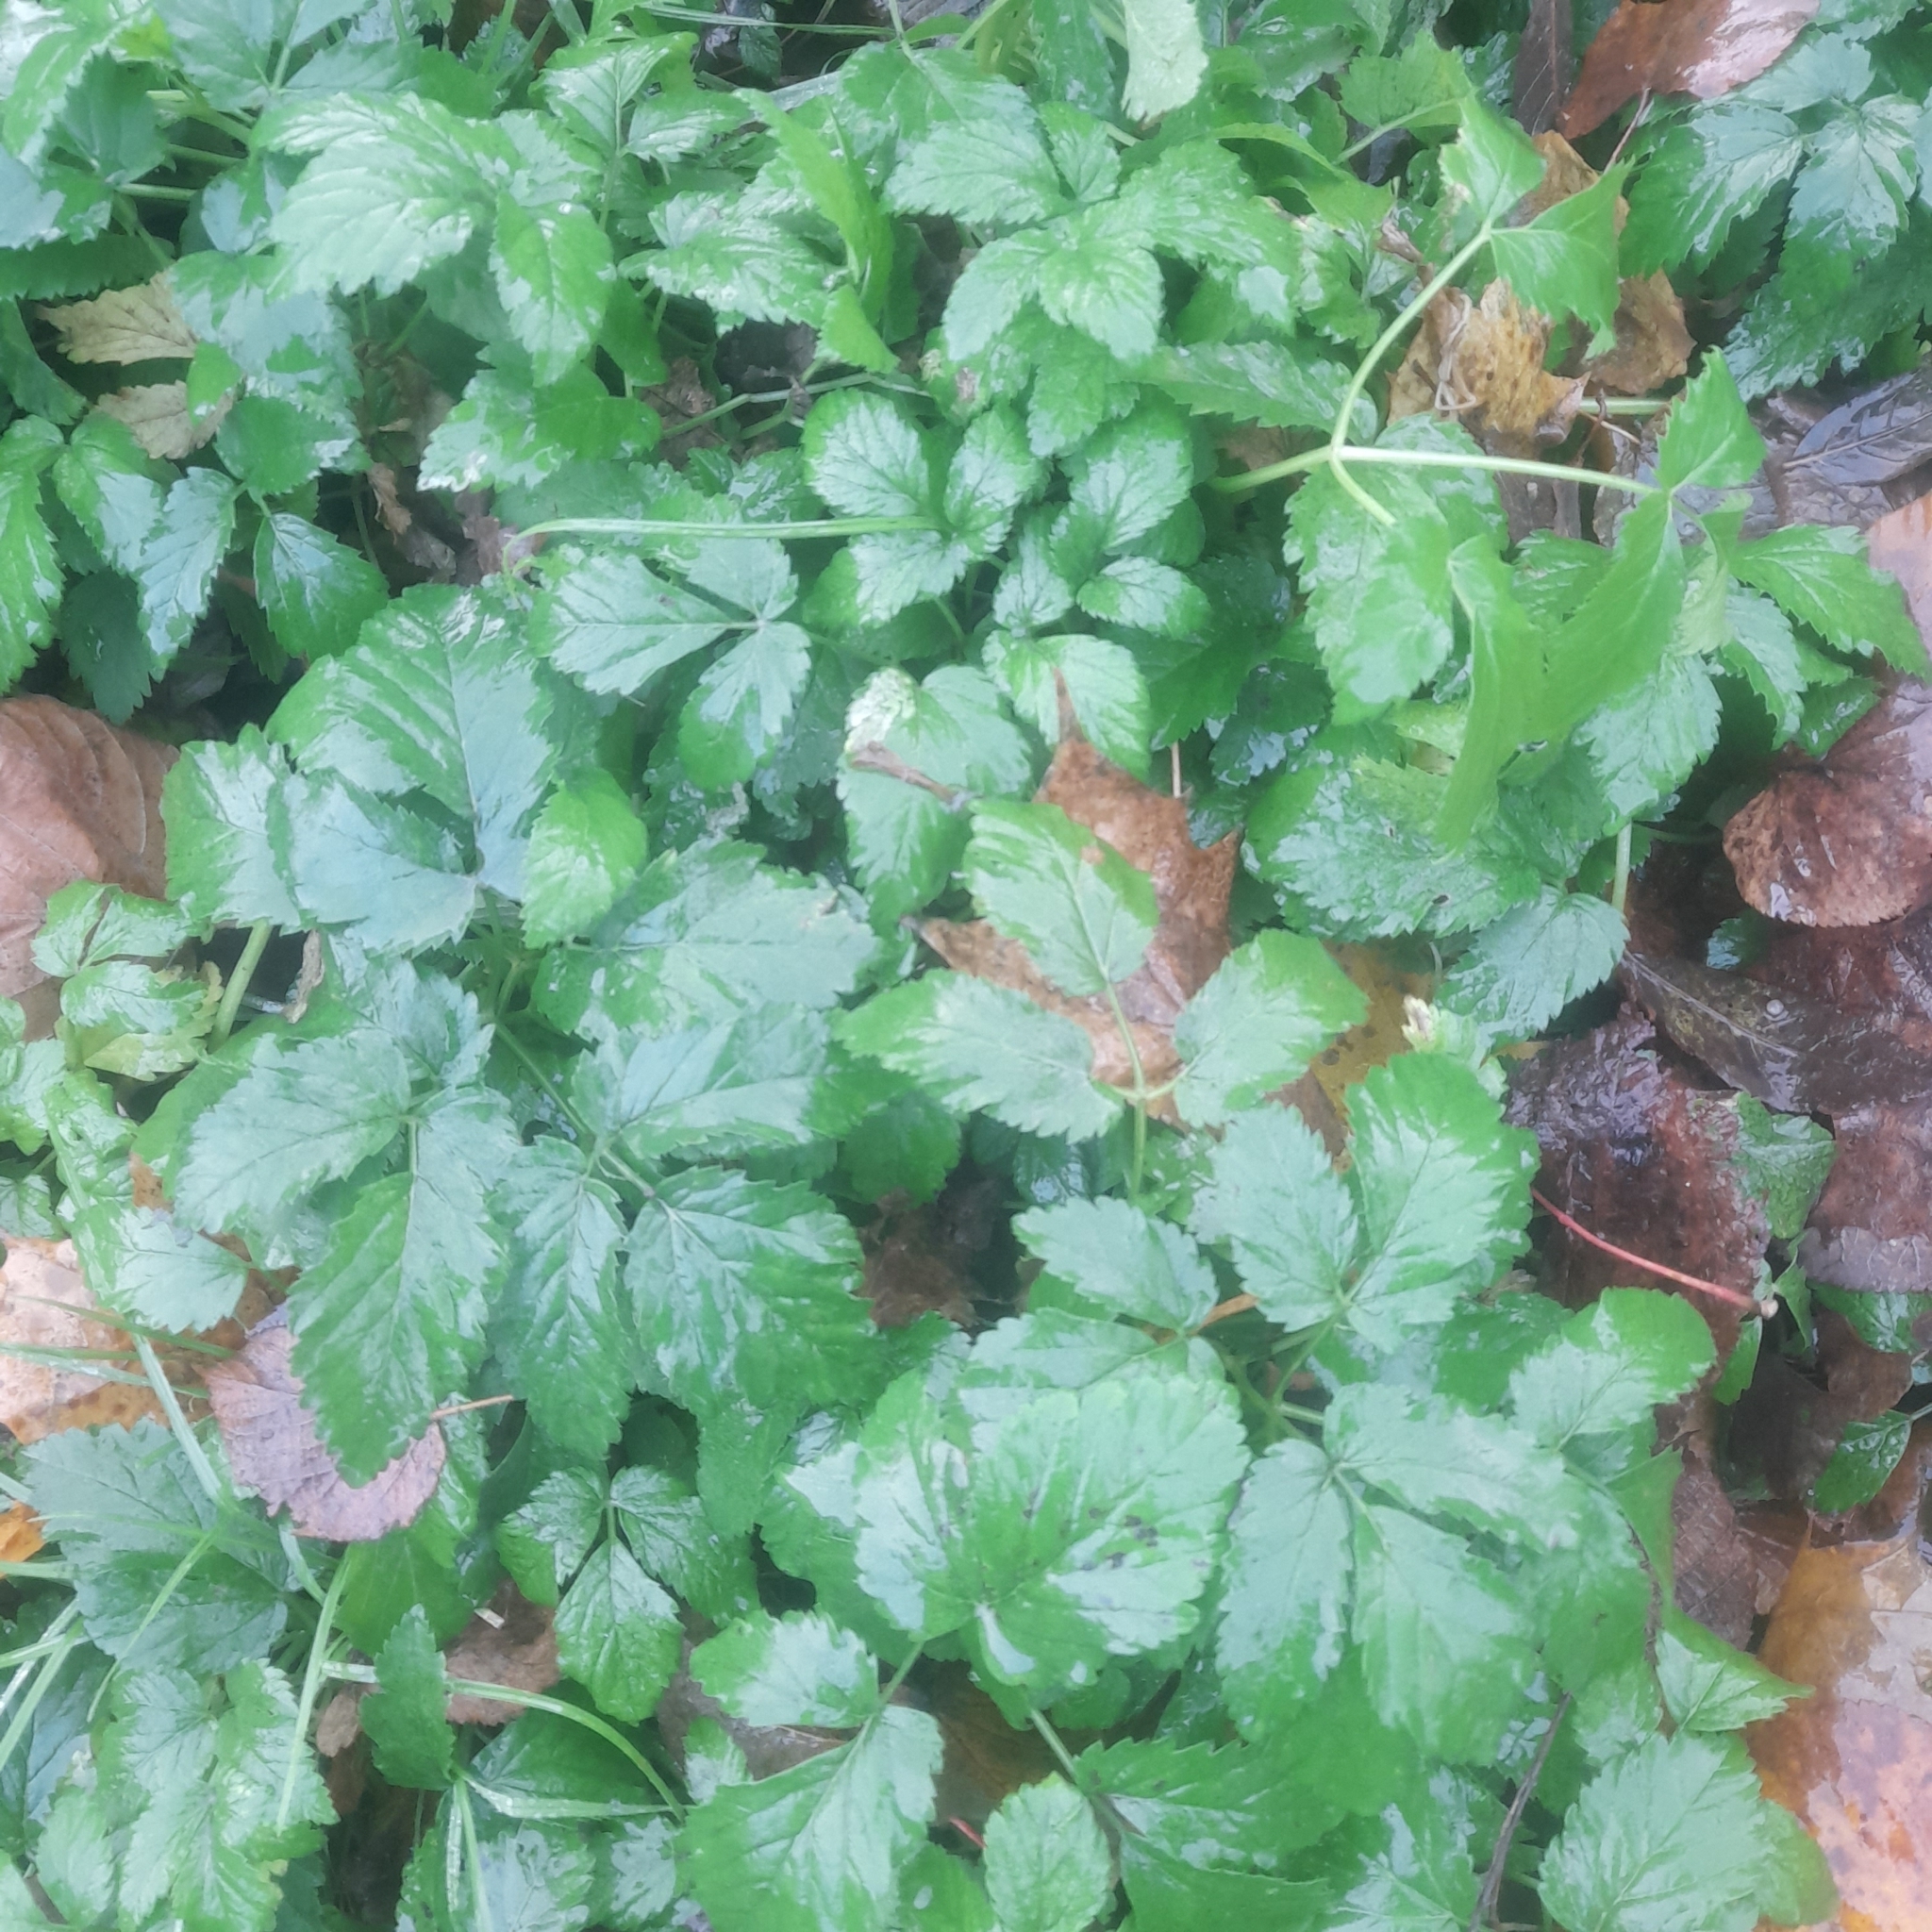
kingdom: Plantae
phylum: Tracheophyta
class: Magnoliopsida
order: Apiales
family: Apiaceae
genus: Aegopodium
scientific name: Aegopodium podagraria
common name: Ground-elder
